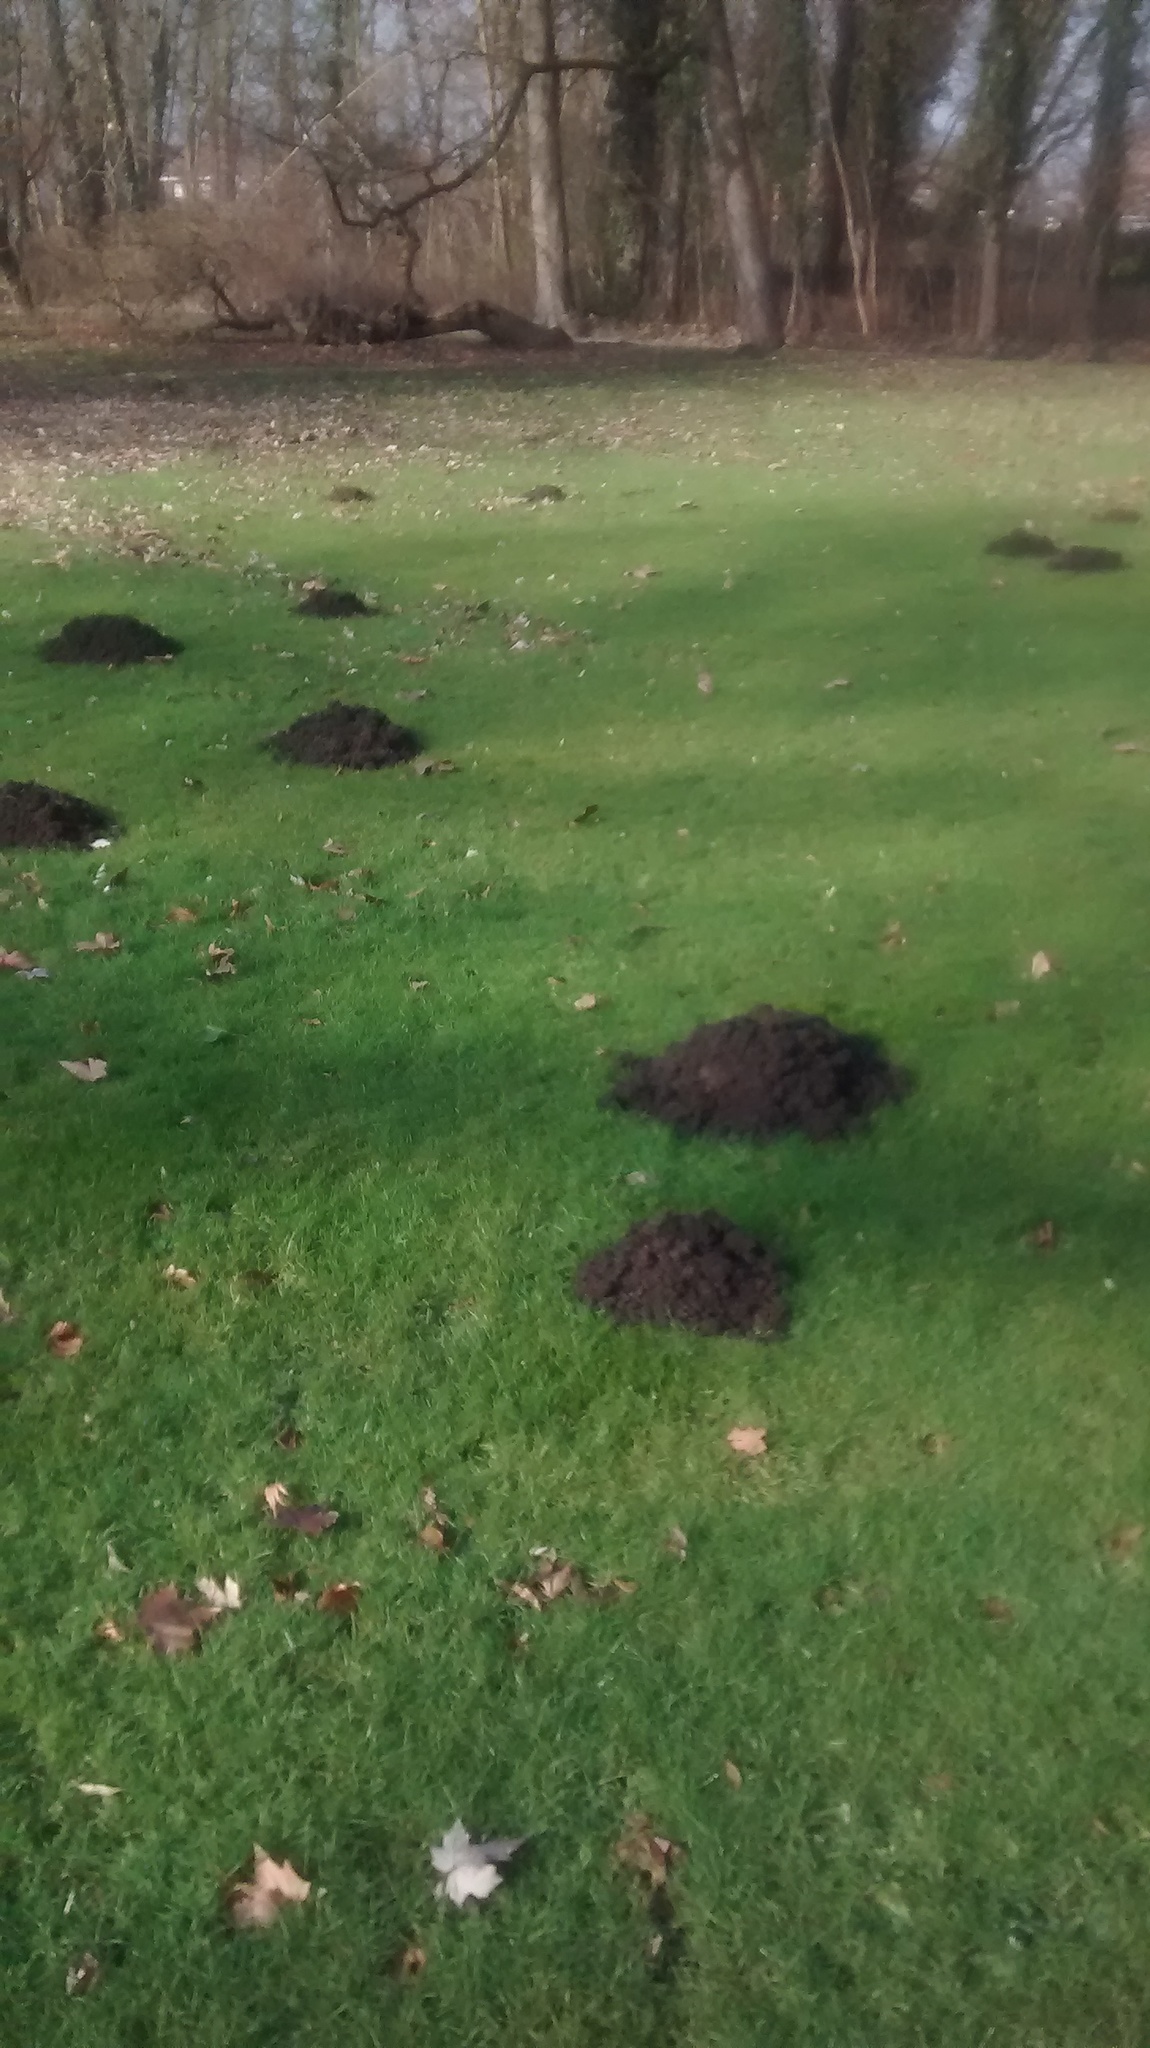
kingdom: Animalia
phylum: Chordata
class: Mammalia
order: Soricomorpha
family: Talpidae
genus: Talpa
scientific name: Talpa europaea
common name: European mole
